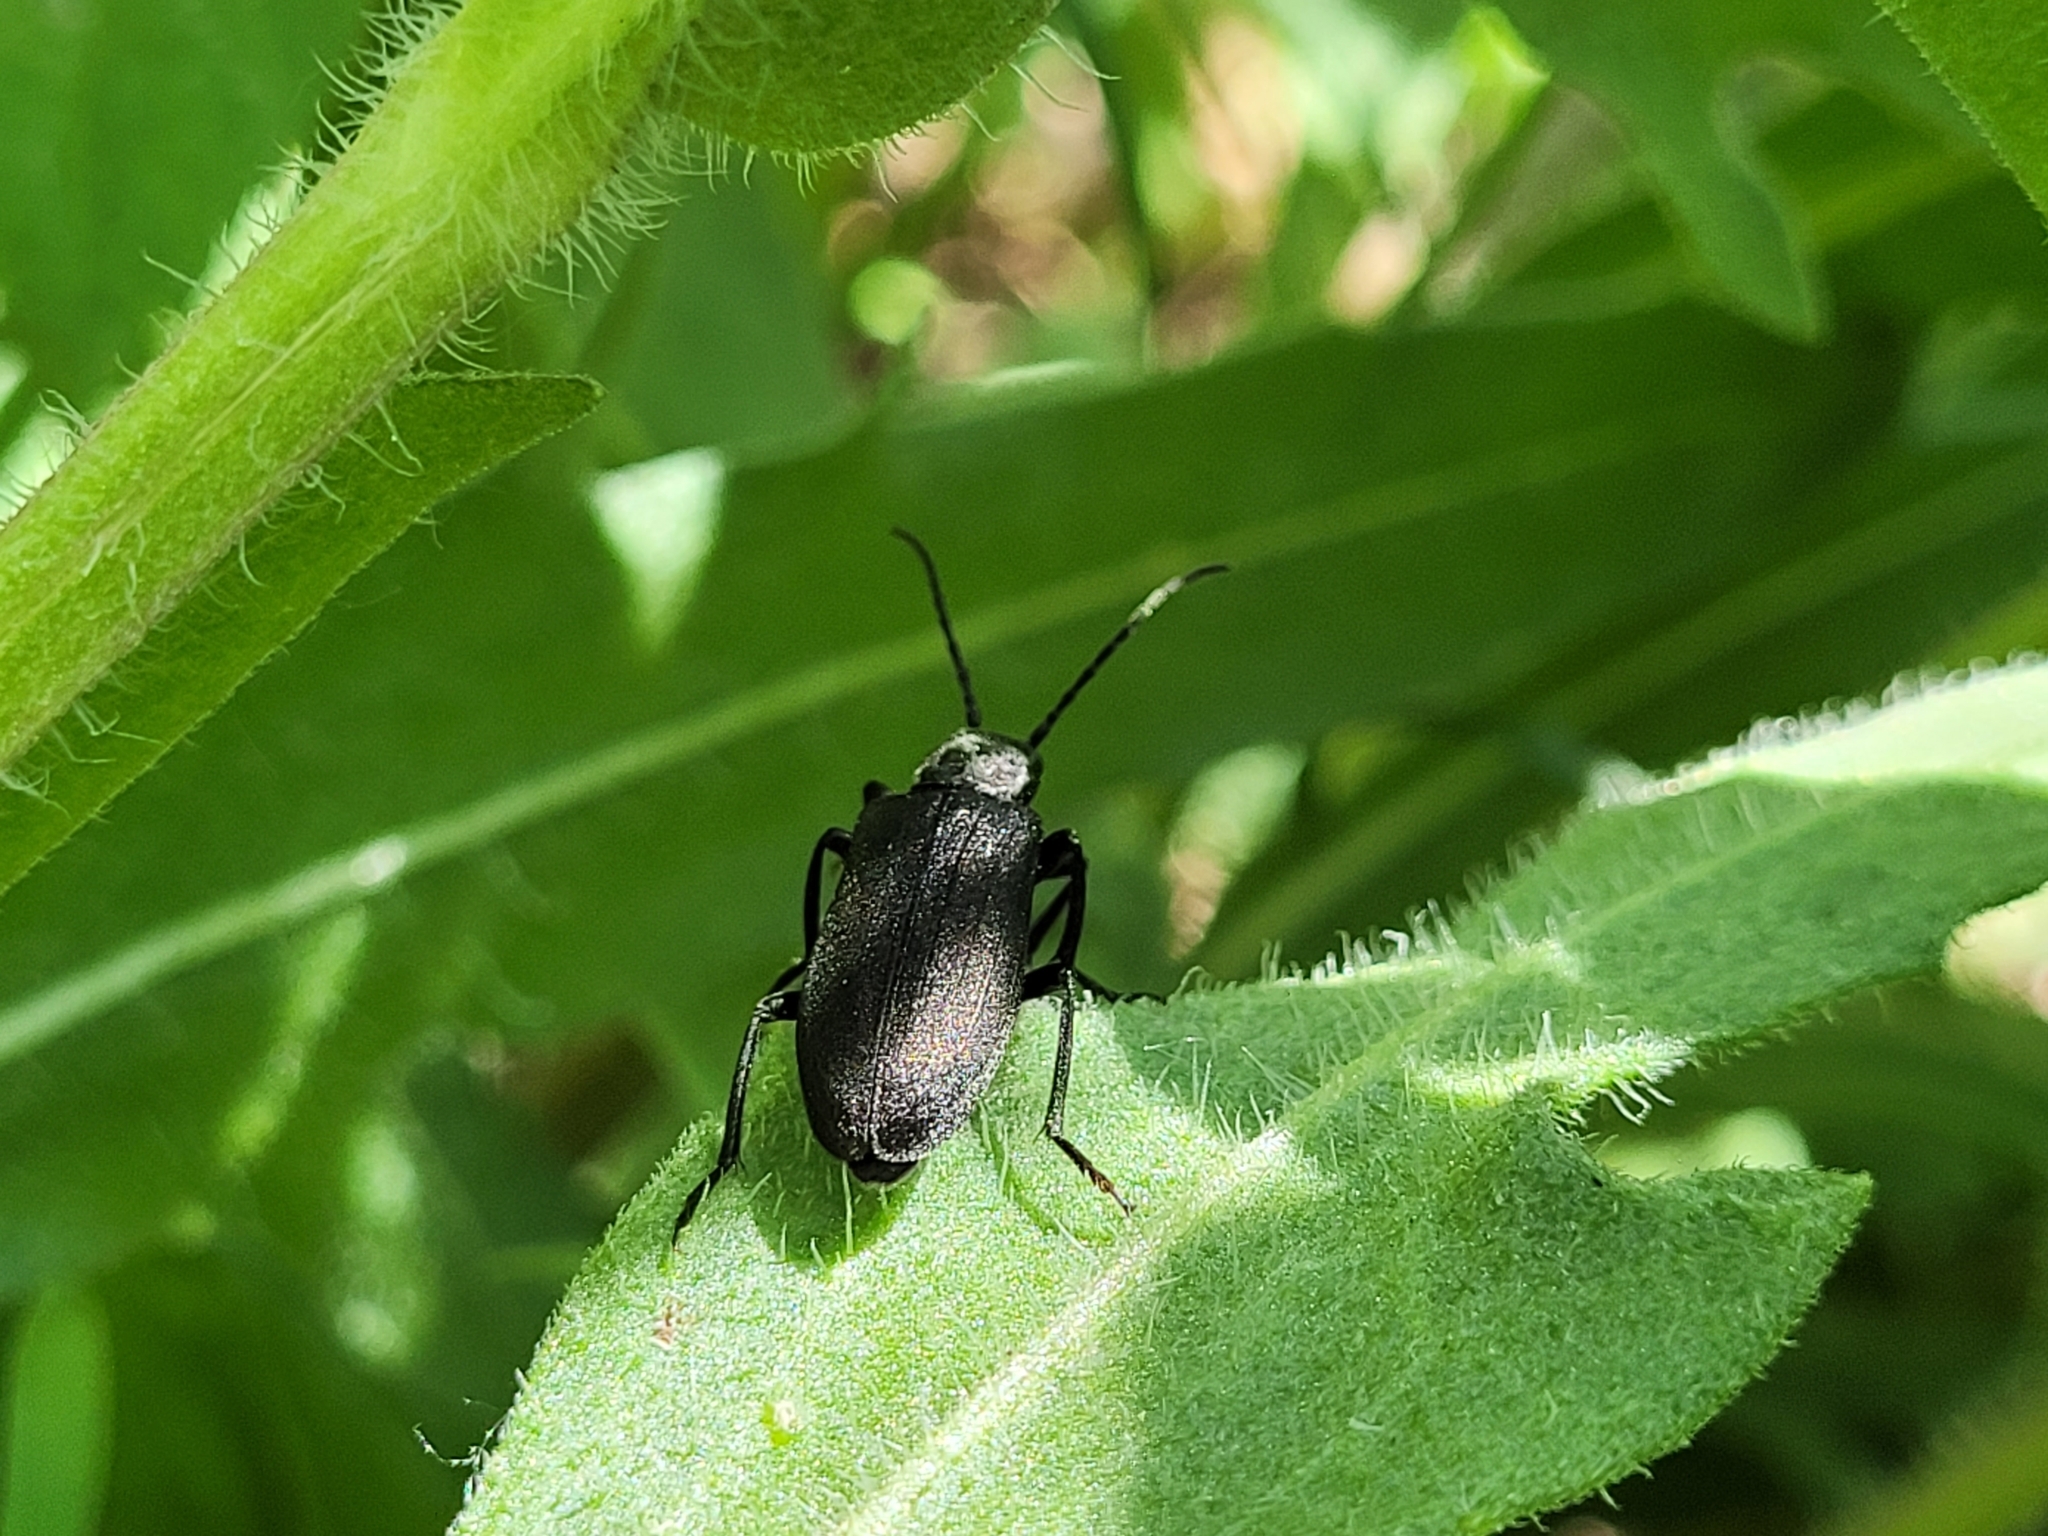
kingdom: Animalia
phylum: Arthropoda
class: Insecta
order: Coleoptera
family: Oedemeridae
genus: Ditylus
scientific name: Ditylus quadricollis
